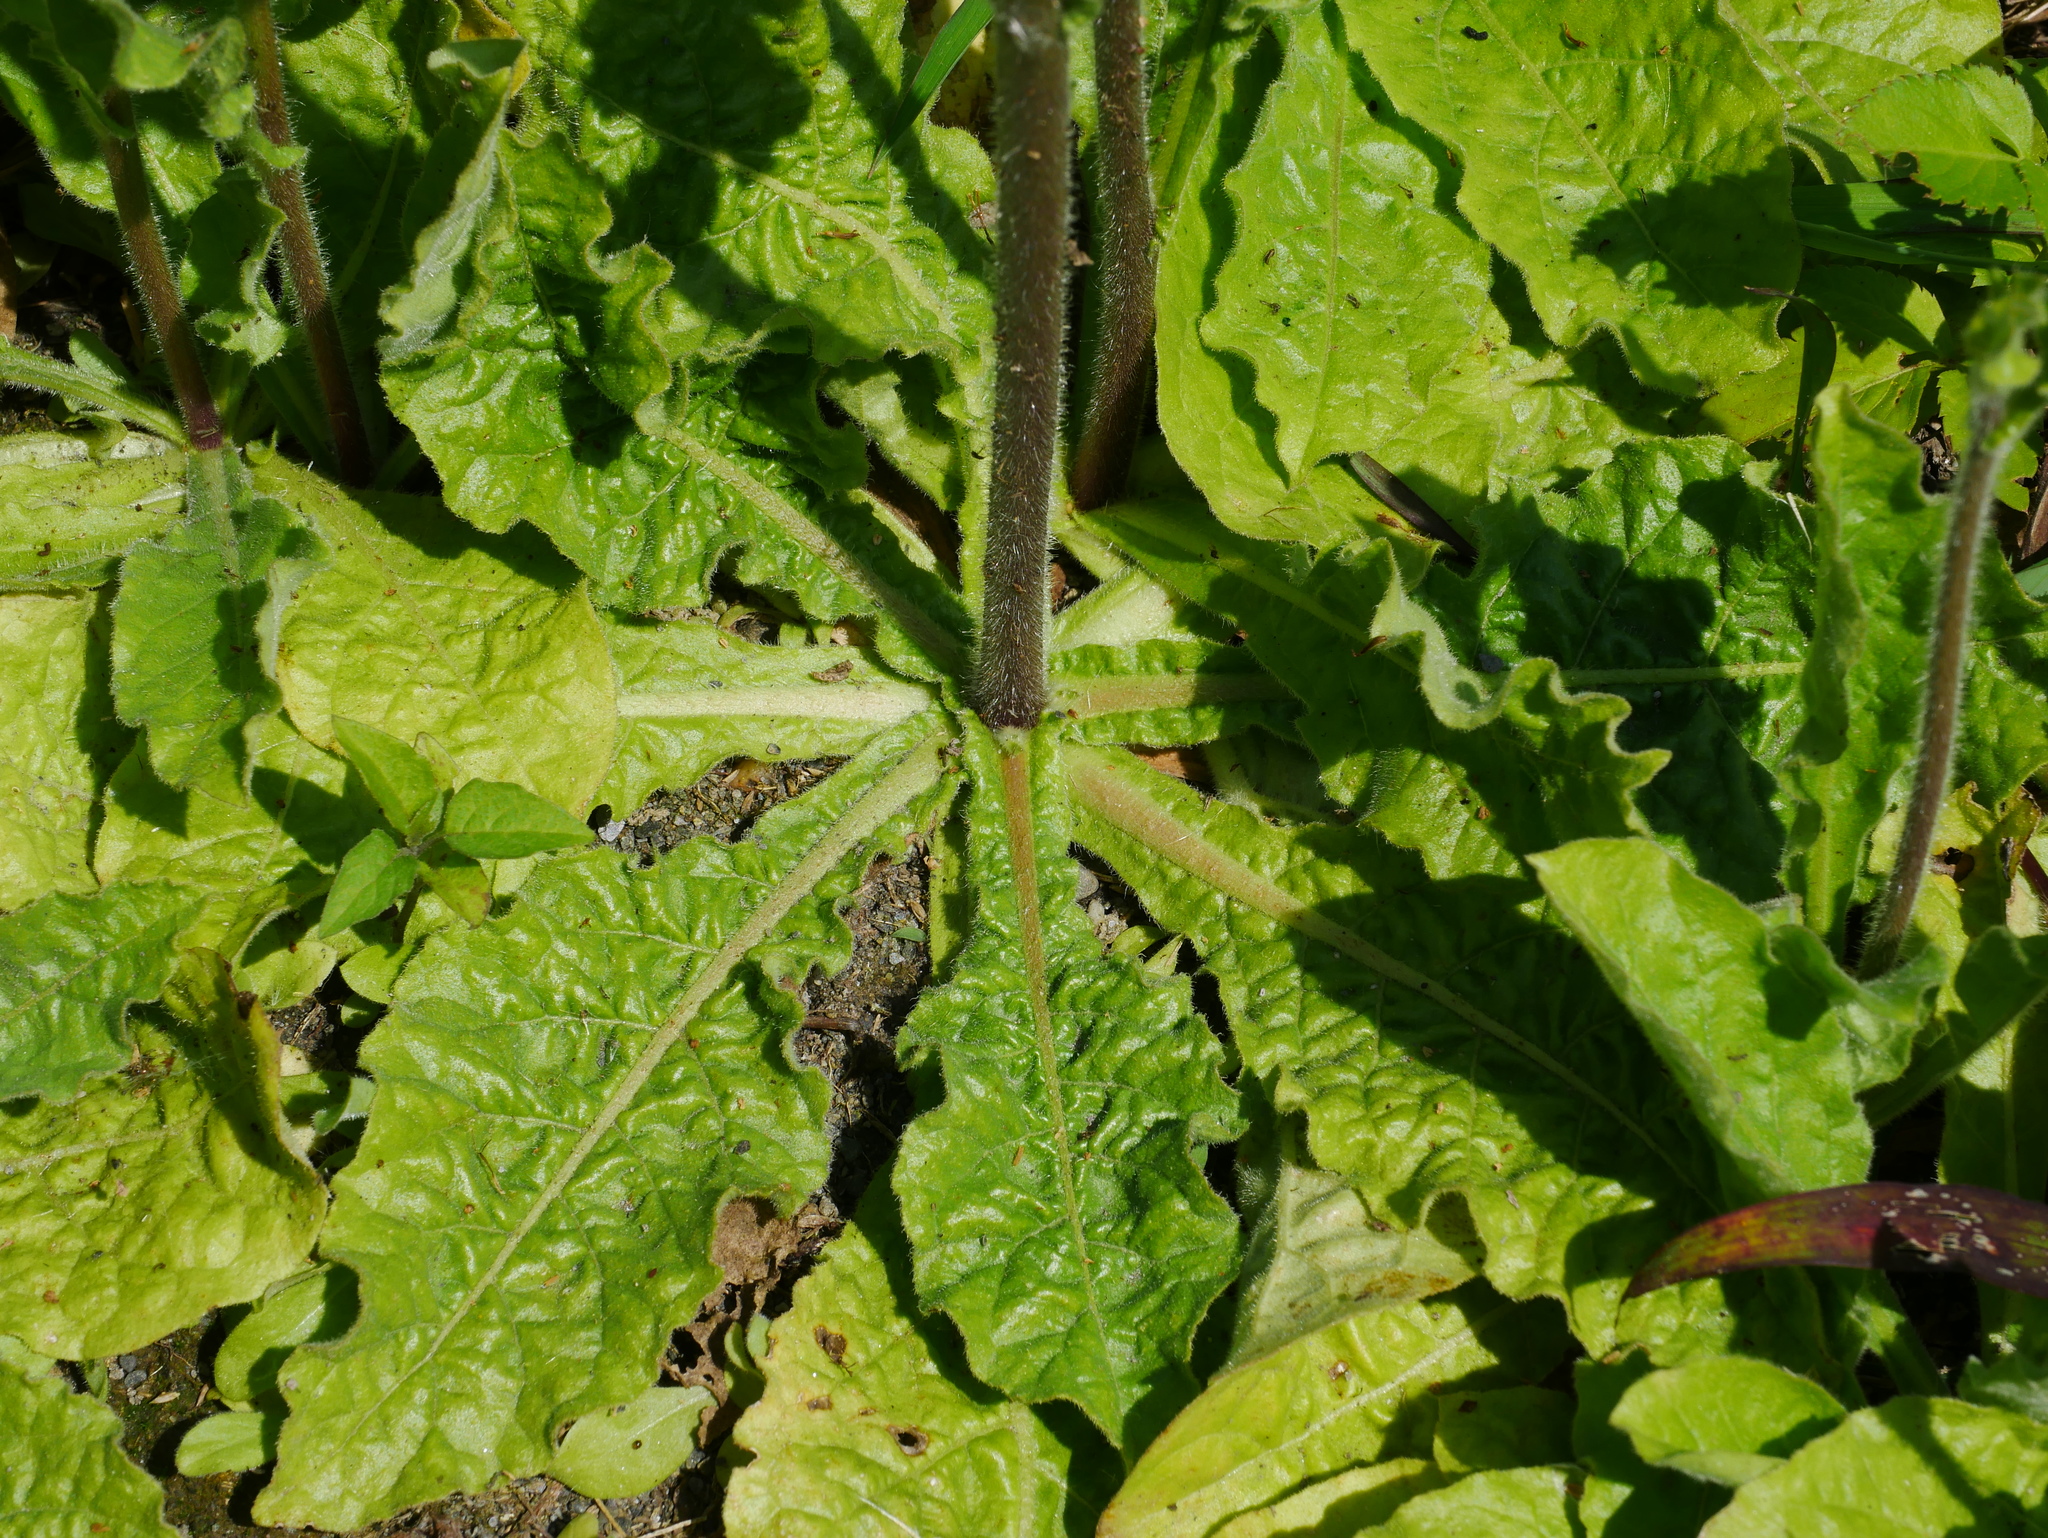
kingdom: Plantae
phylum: Tracheophyta
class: Magnoliopsida
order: Solanales
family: Solanaceae
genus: Nicotiana
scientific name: Nicotiana plumbaginifolia
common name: Tex-mex tobacco
